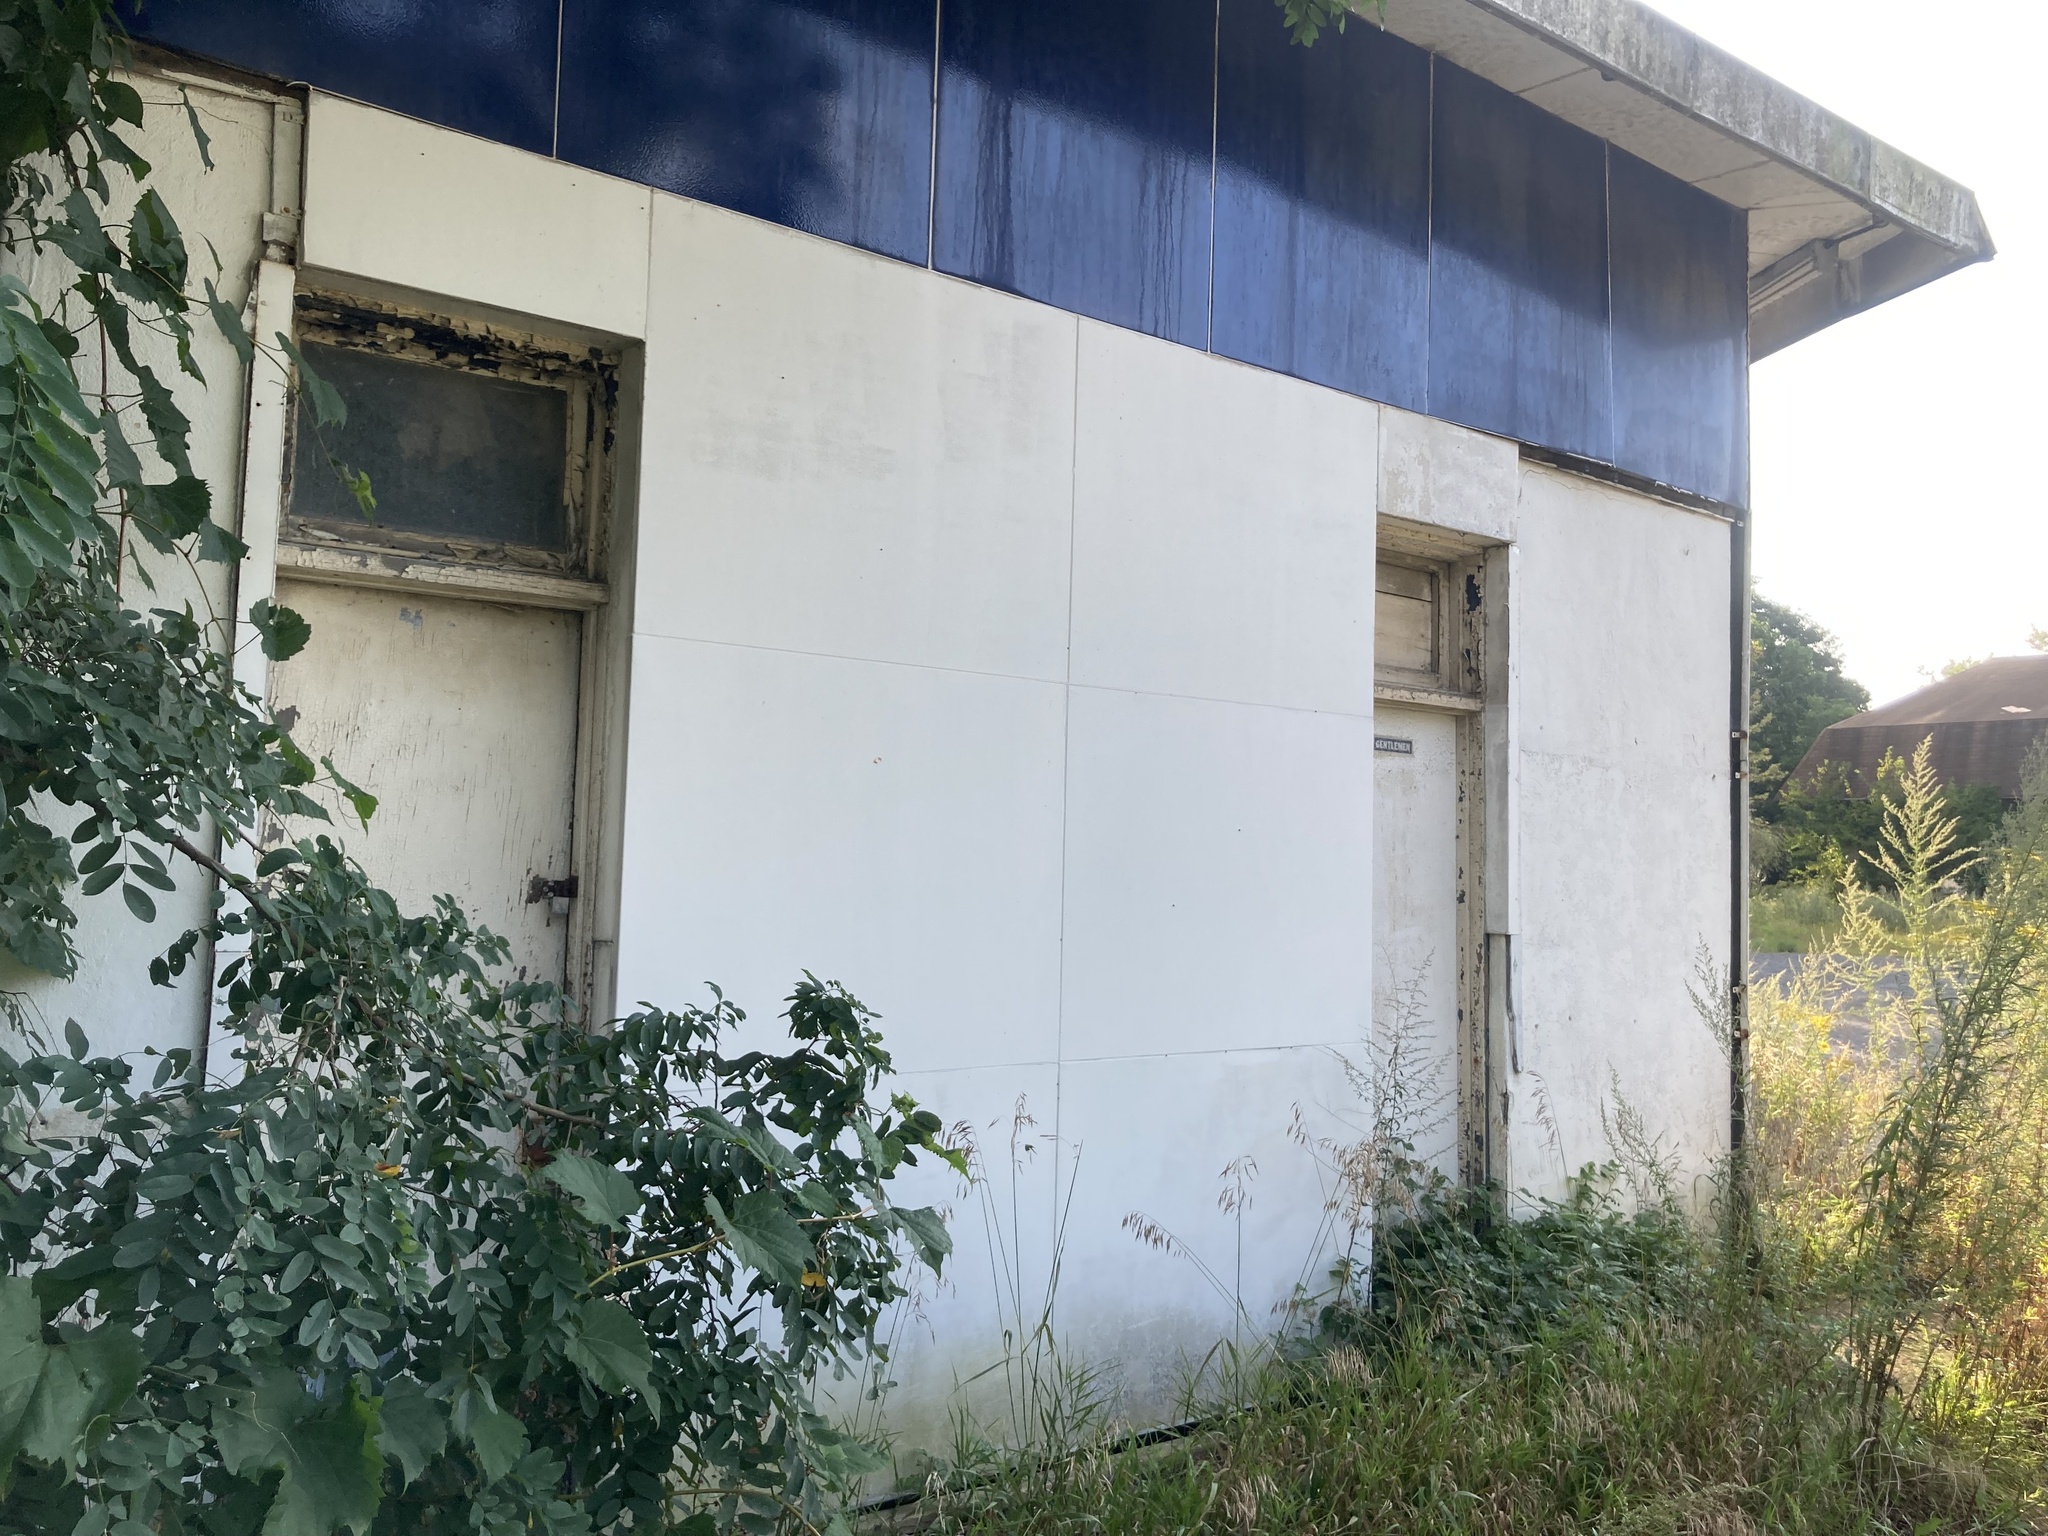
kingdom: Plantae
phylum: Tracheophyta
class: Magnoliopsida
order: Fabales
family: Fabaceae
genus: Robinia
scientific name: Robinia pseudoacacia
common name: Black locust
